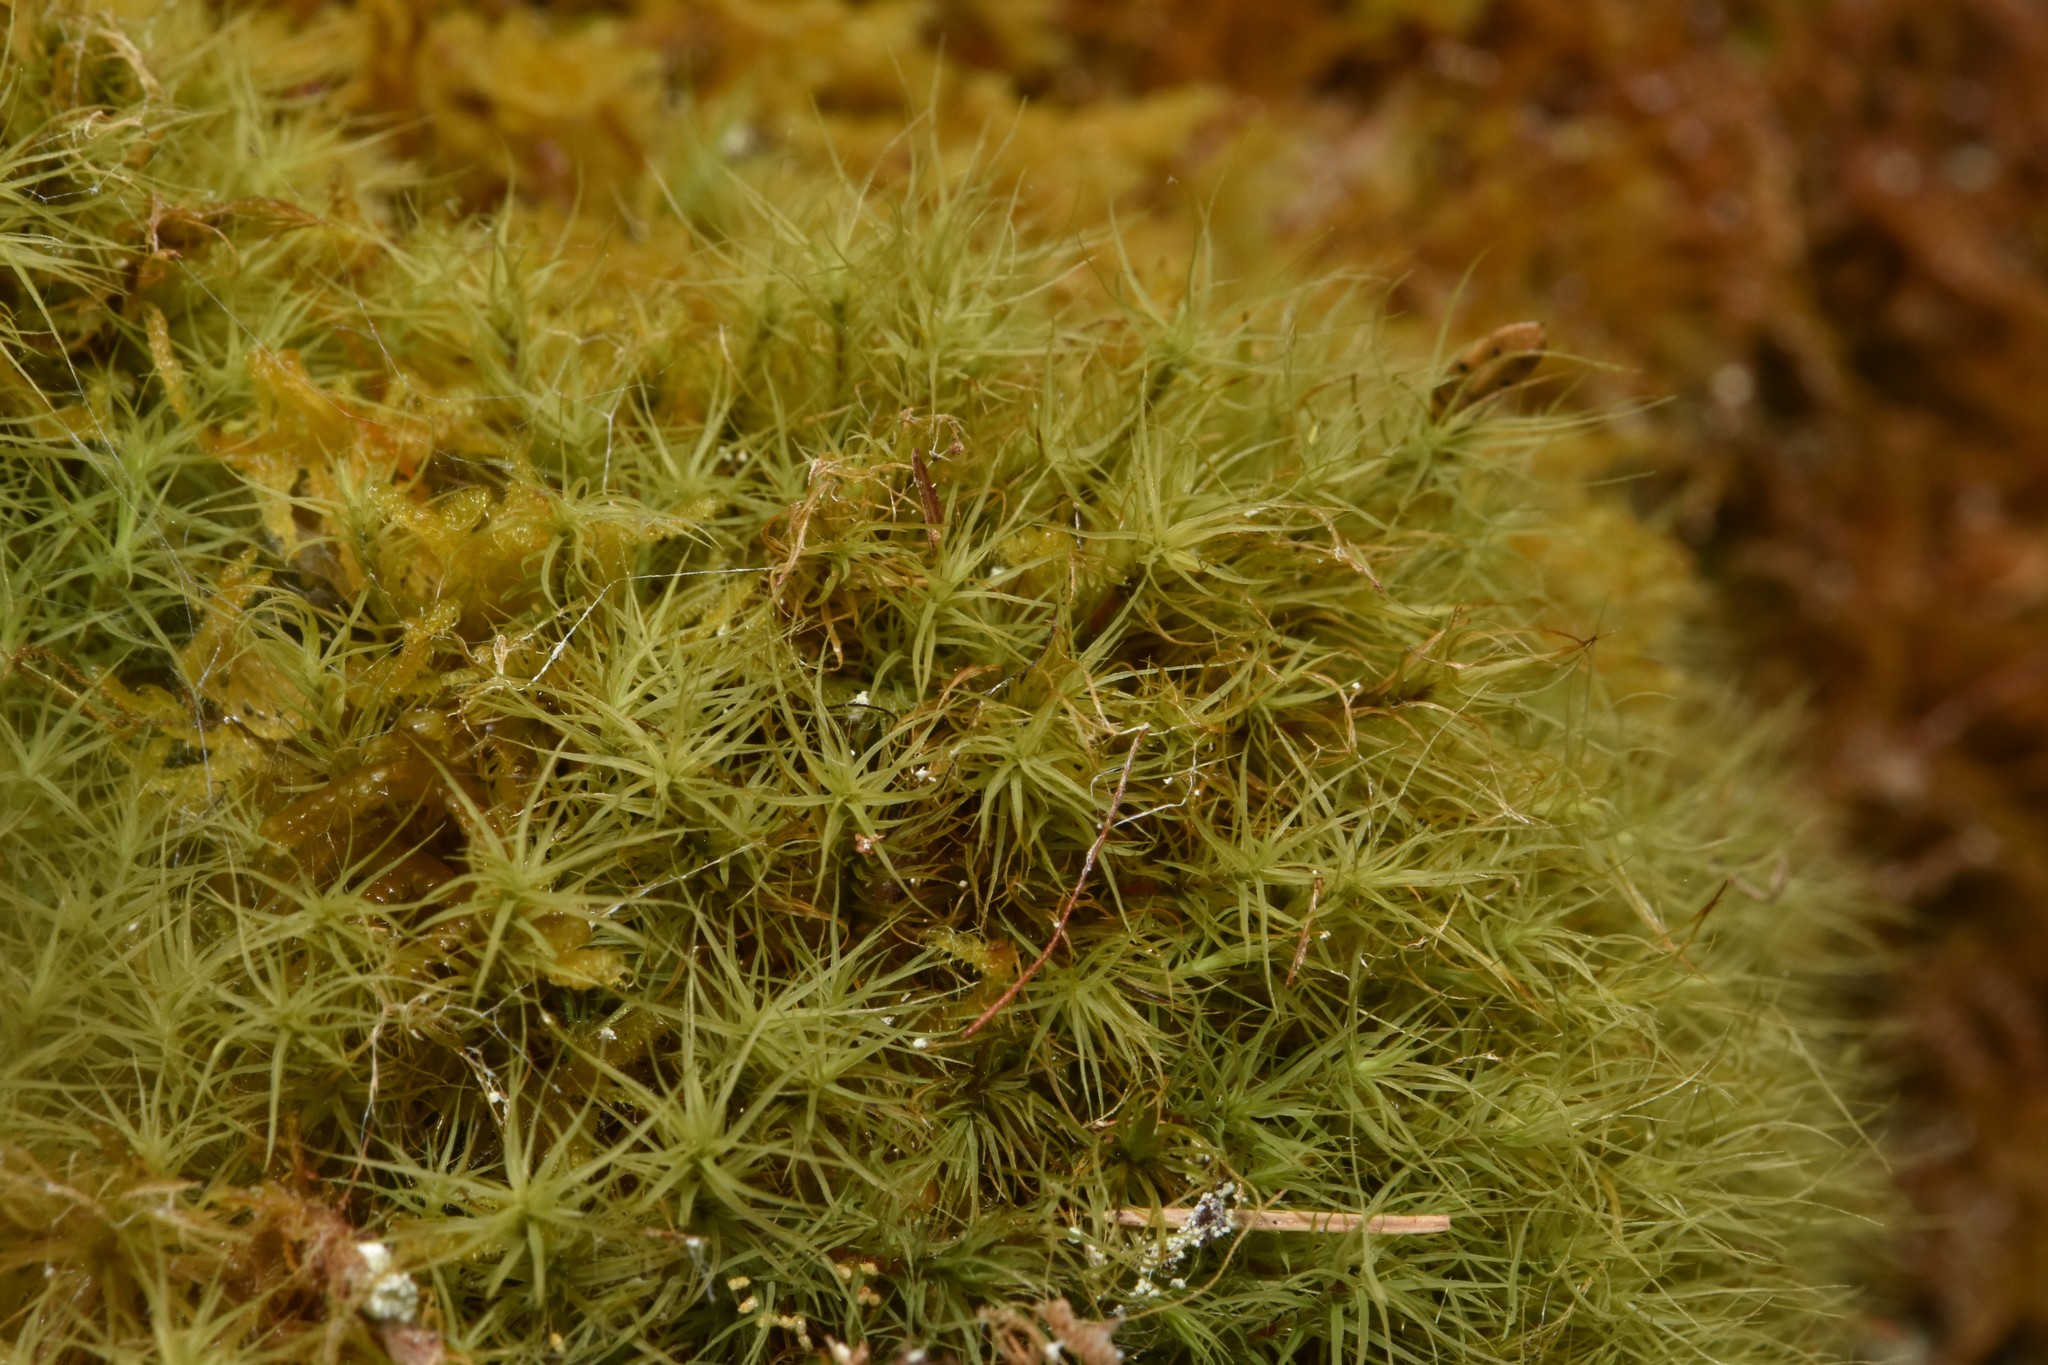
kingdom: Plantae
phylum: Bryophyta
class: Bryopsida
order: Bartramiales
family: Bartramiaceae
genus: Bartramia
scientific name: Bartramia ithyphylla
